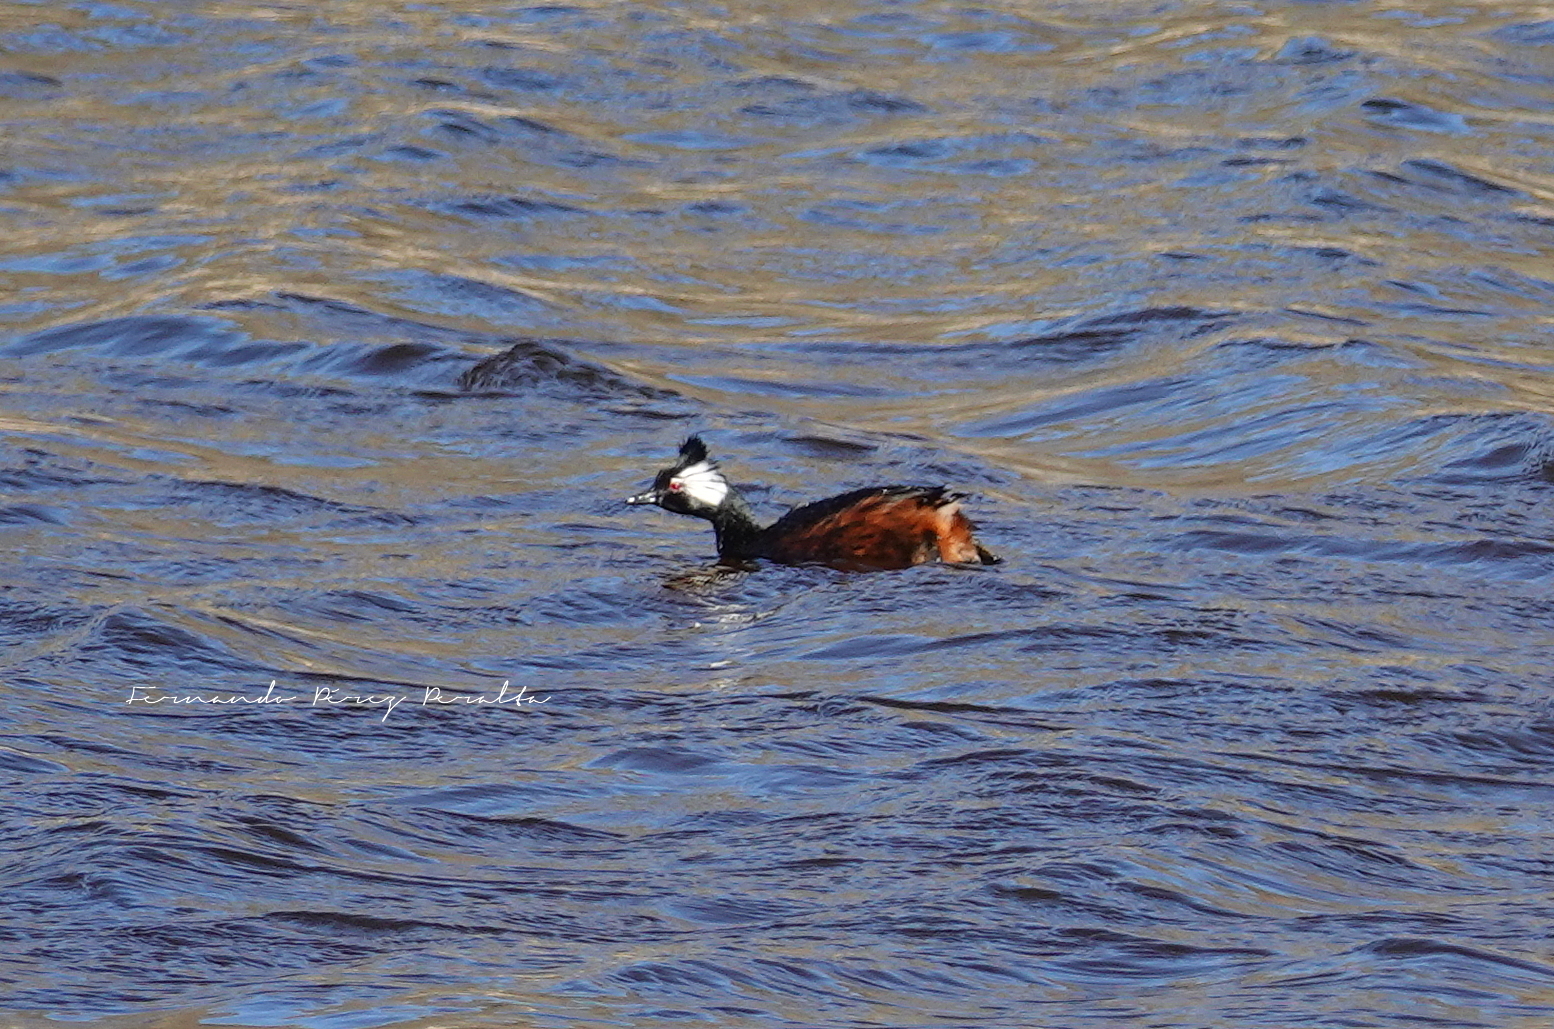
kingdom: Animalia
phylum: Chordata
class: Aves
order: Podicipediformes
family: Podicipedidae
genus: Rollandia
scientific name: Rollandia rolland
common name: White-tufted grebe
